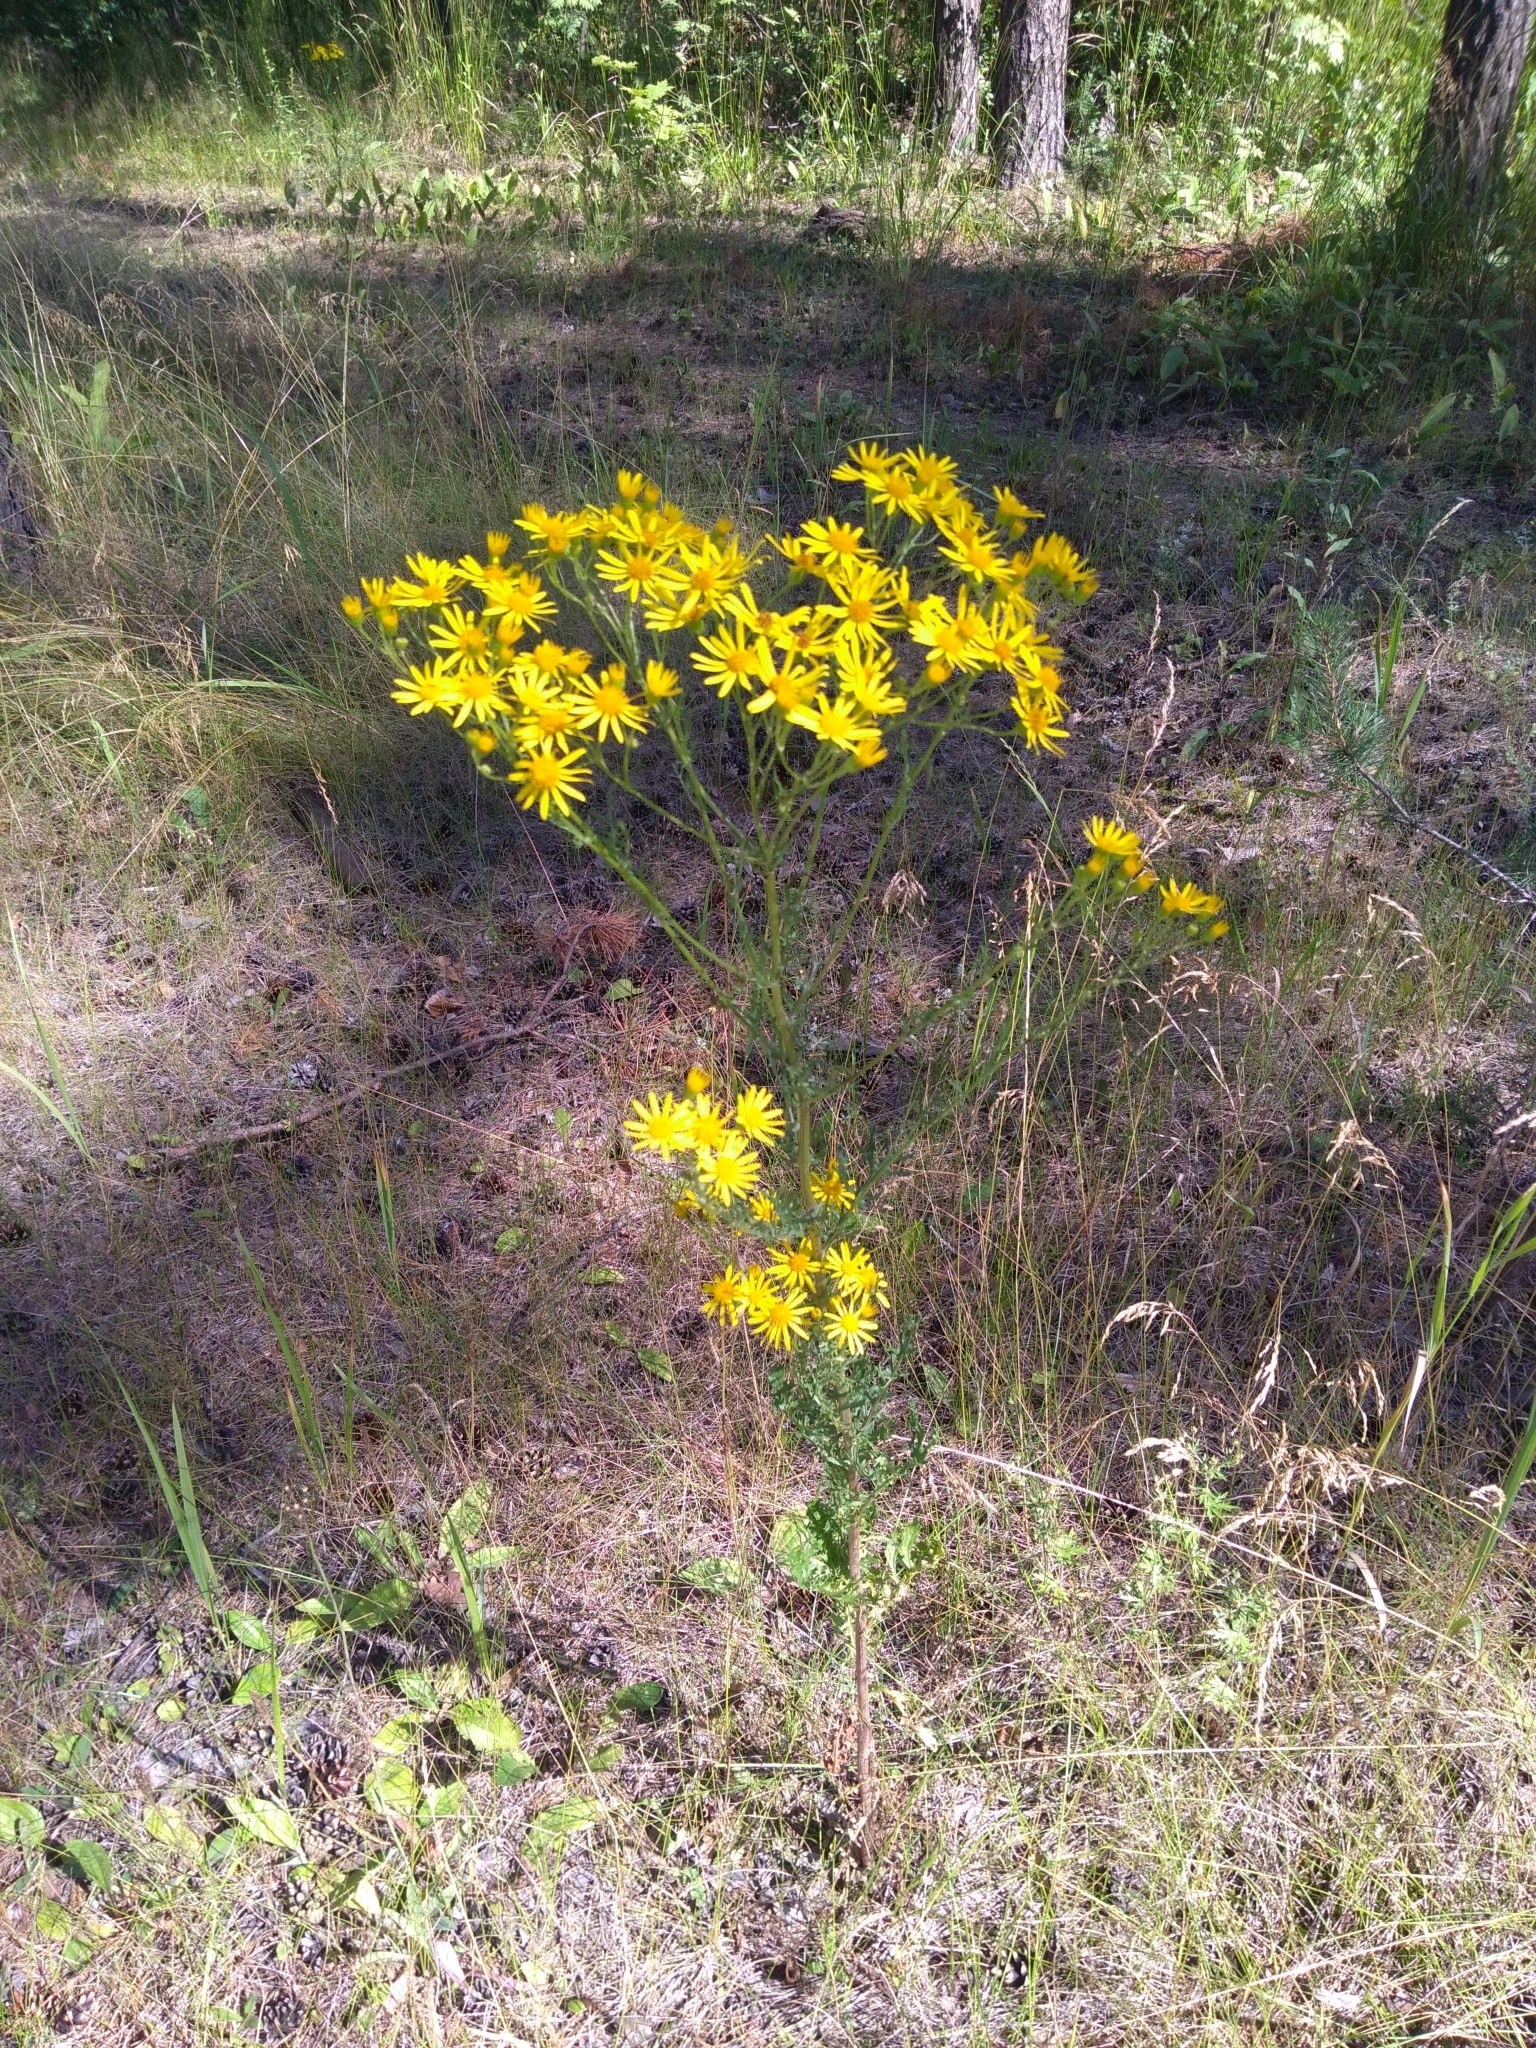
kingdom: Plantae
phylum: Tracheophyta
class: Magnoliopsida
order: Asterales
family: Asteraceae
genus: Jacobaea
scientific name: Jacobaea vulgaris
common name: Stinking willie
